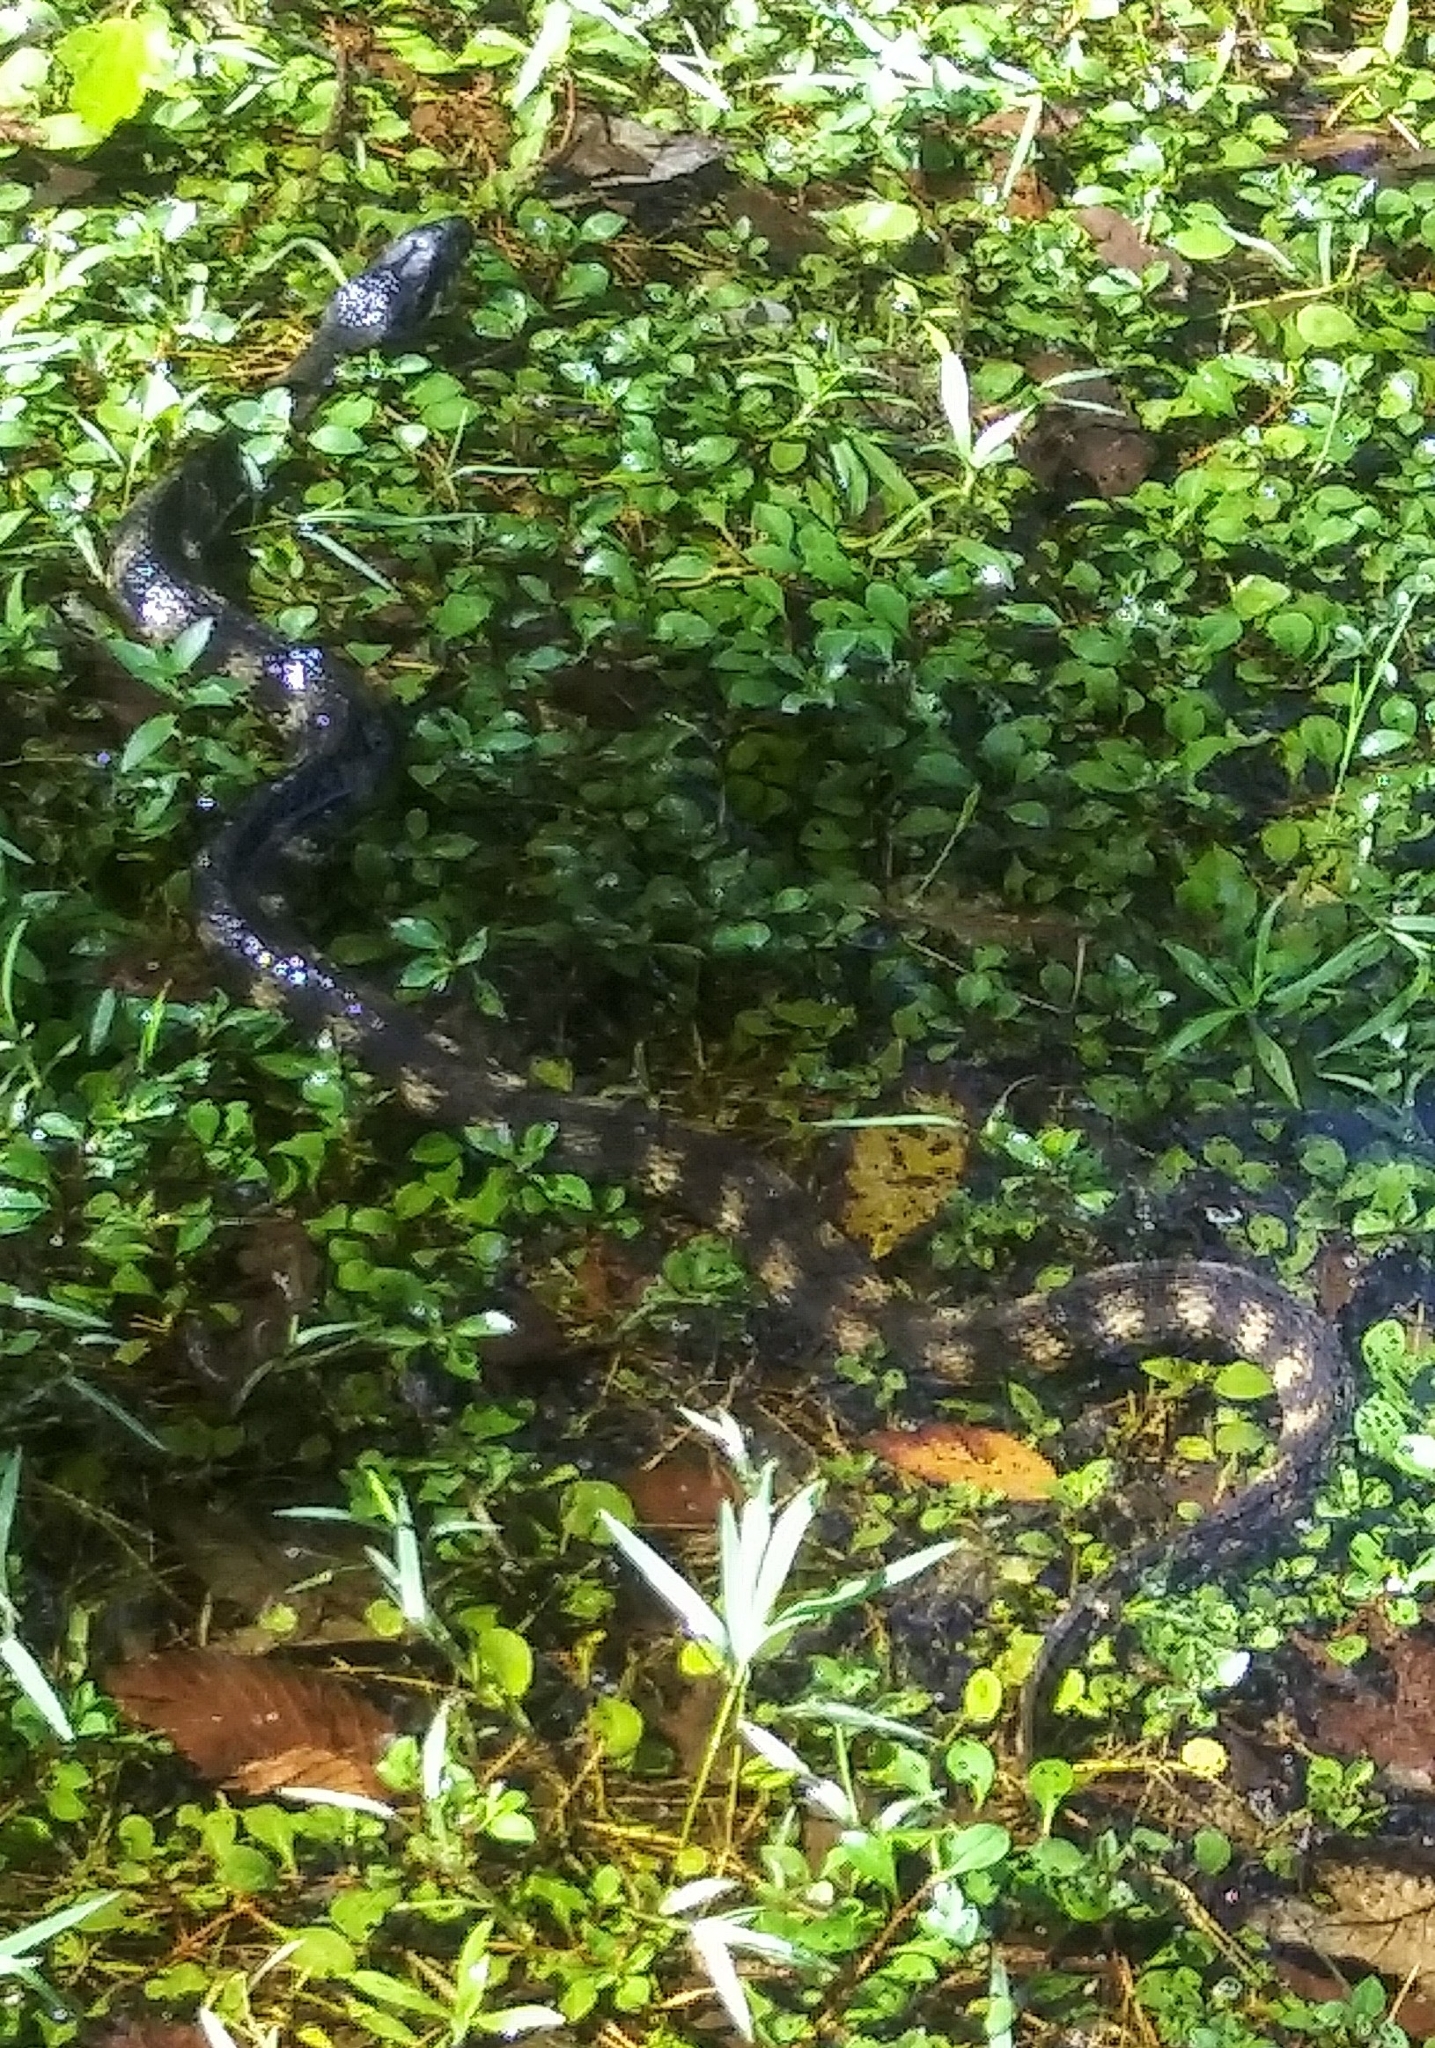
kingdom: Animalia
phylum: Chordata
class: Squamata
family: Colubridae
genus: Nerodia
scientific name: Nerodia fasciata
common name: Southern water snake
